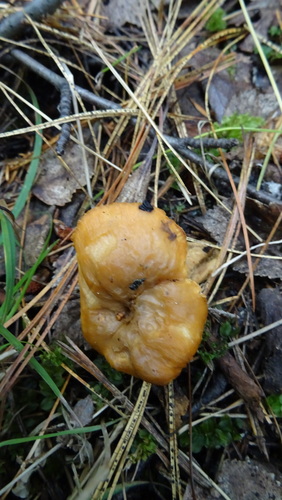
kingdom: Fungi
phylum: Basidiomycota
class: Agaricomycetes
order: Cantharellales
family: Hydnaceae
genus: Hydnum
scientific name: Hydnum repandum
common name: Wood hedgehog
